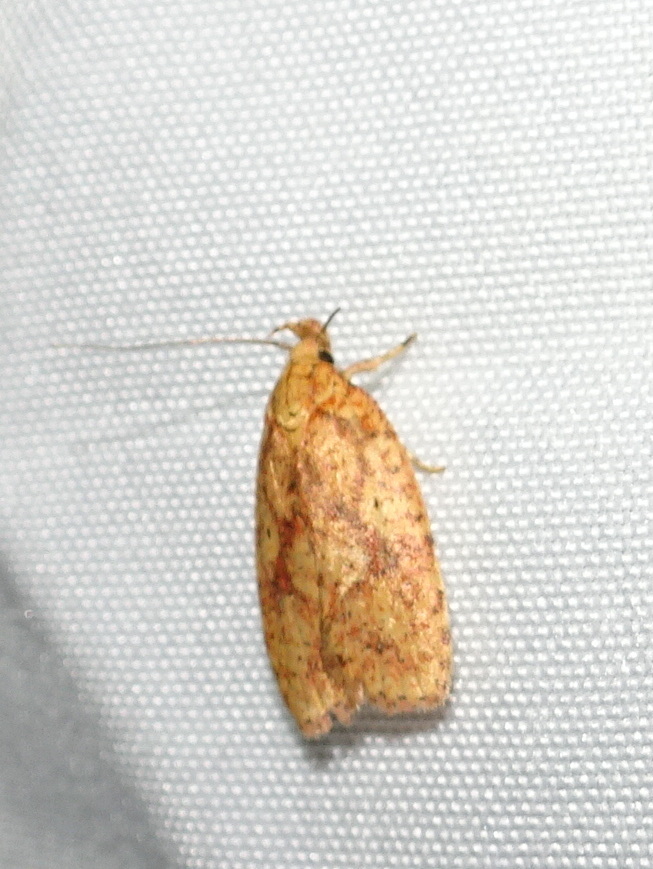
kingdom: Animalia
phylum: Arthropoda
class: Insecta
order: Lepidoptera
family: Depressariidae
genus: Agonopterix
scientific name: Agonopterix robiniella
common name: Four-dotted agonopterix moth
